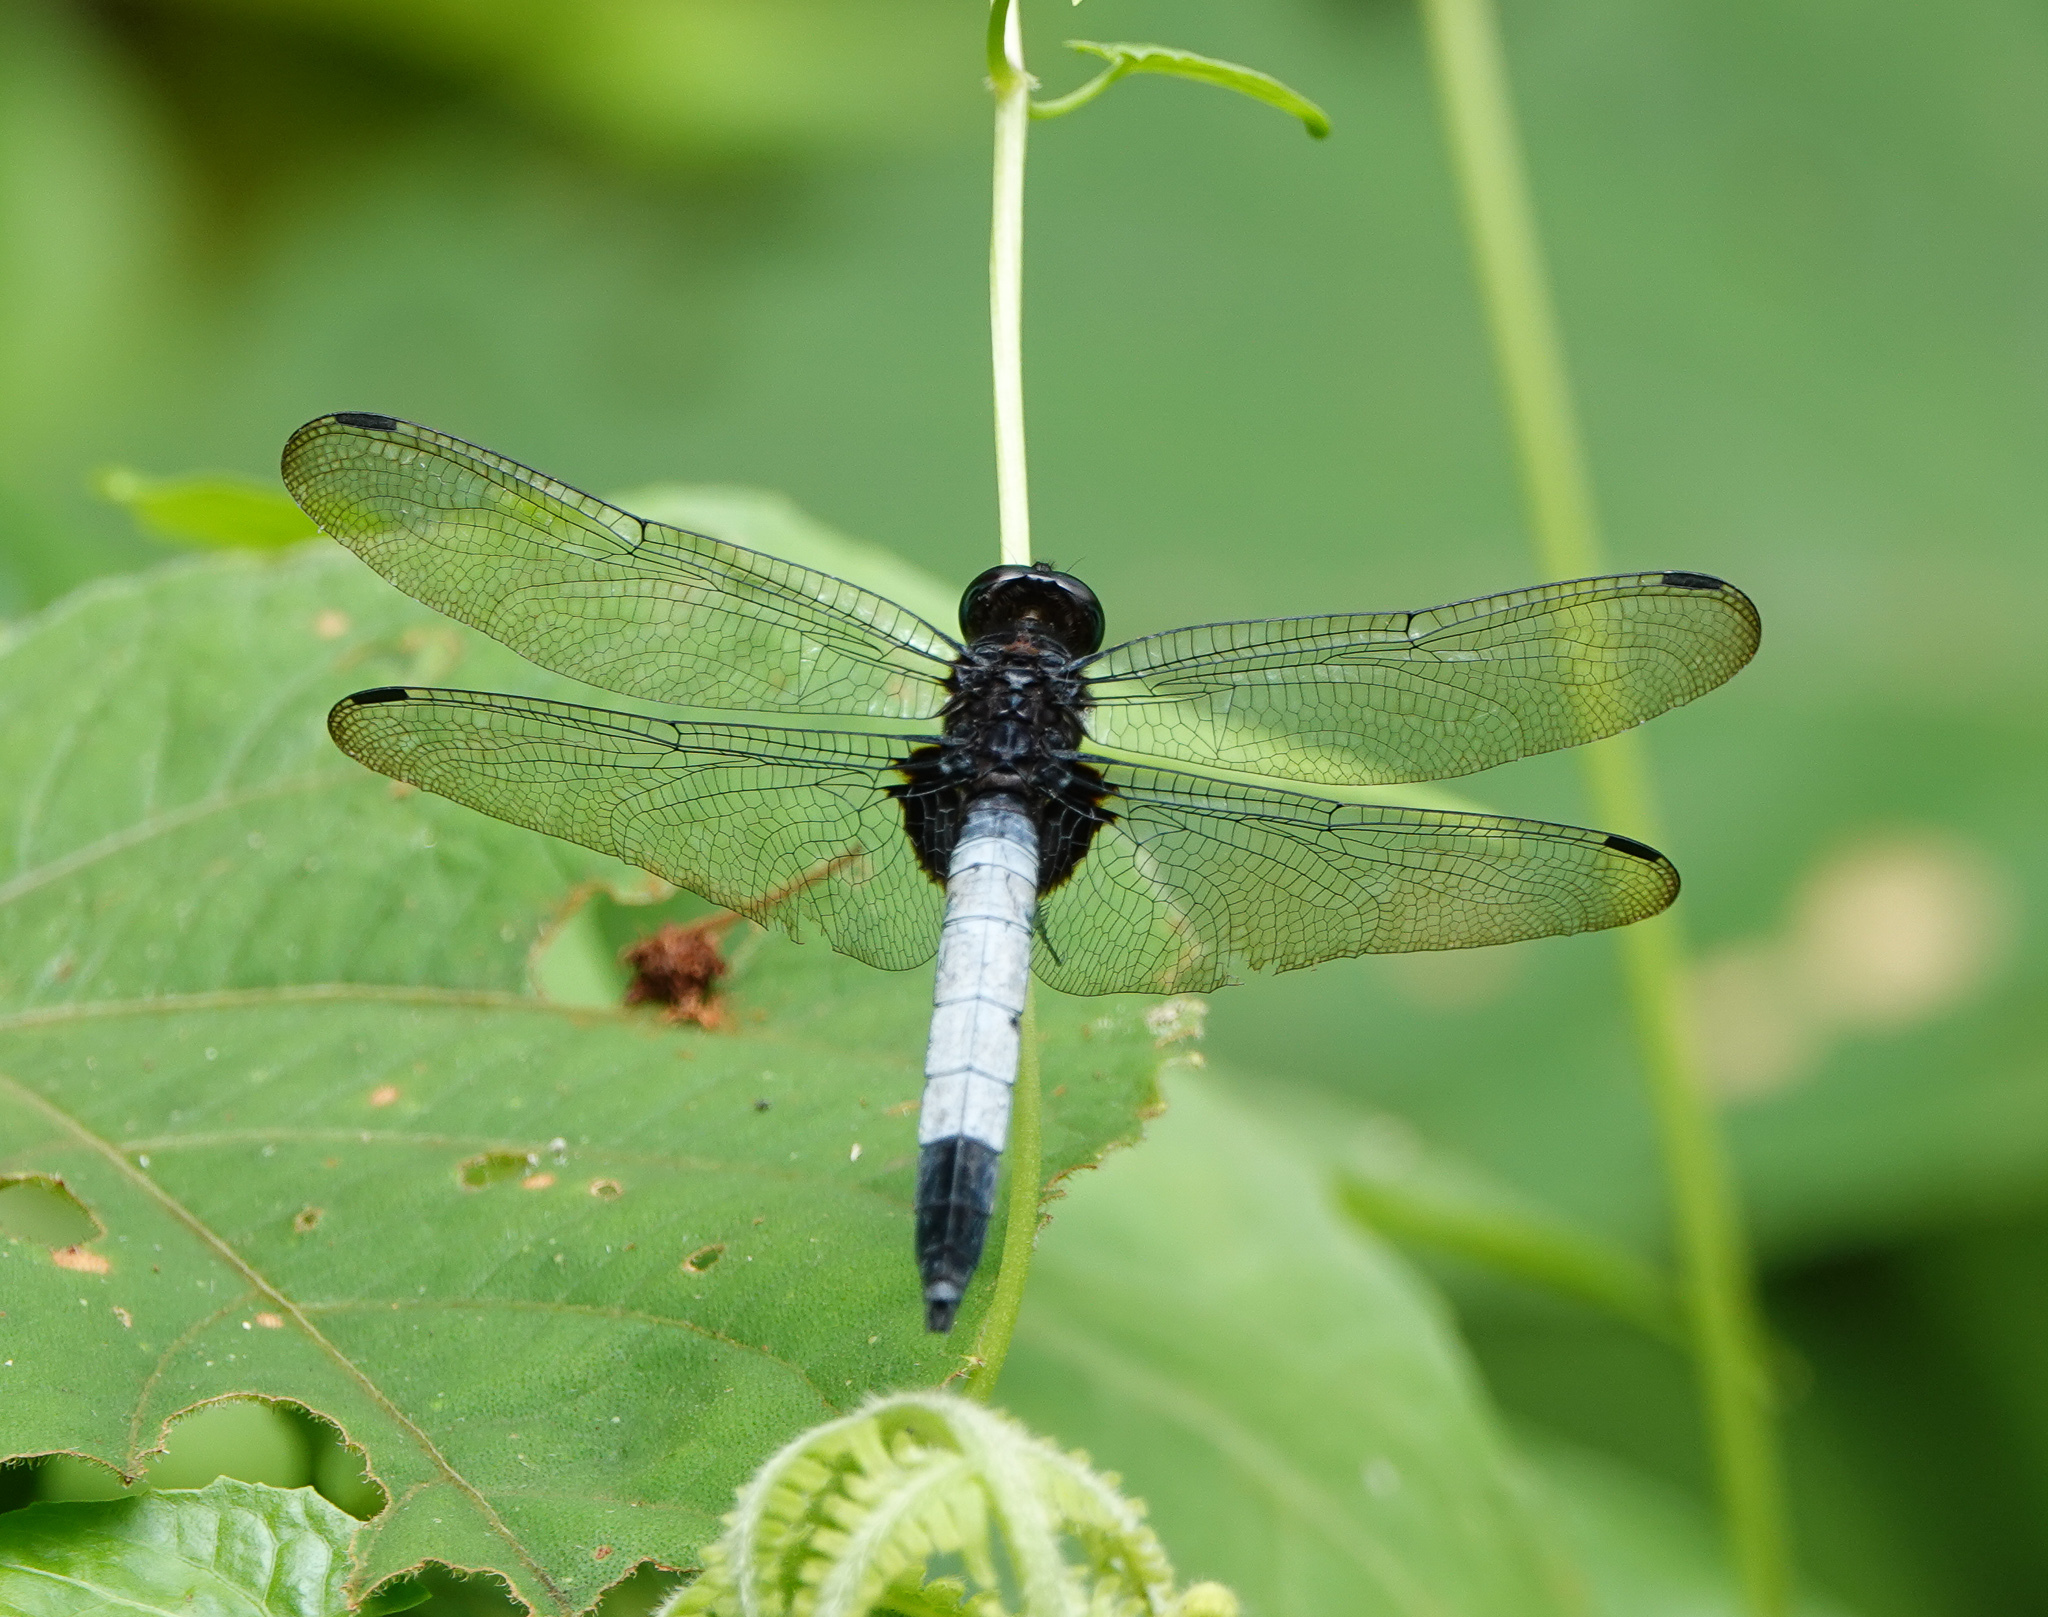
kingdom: Animalia
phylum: Arthropoda
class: Insecta
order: Odonata
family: Libellulidae
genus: Orthetrum
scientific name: Orthetrum triangulare
